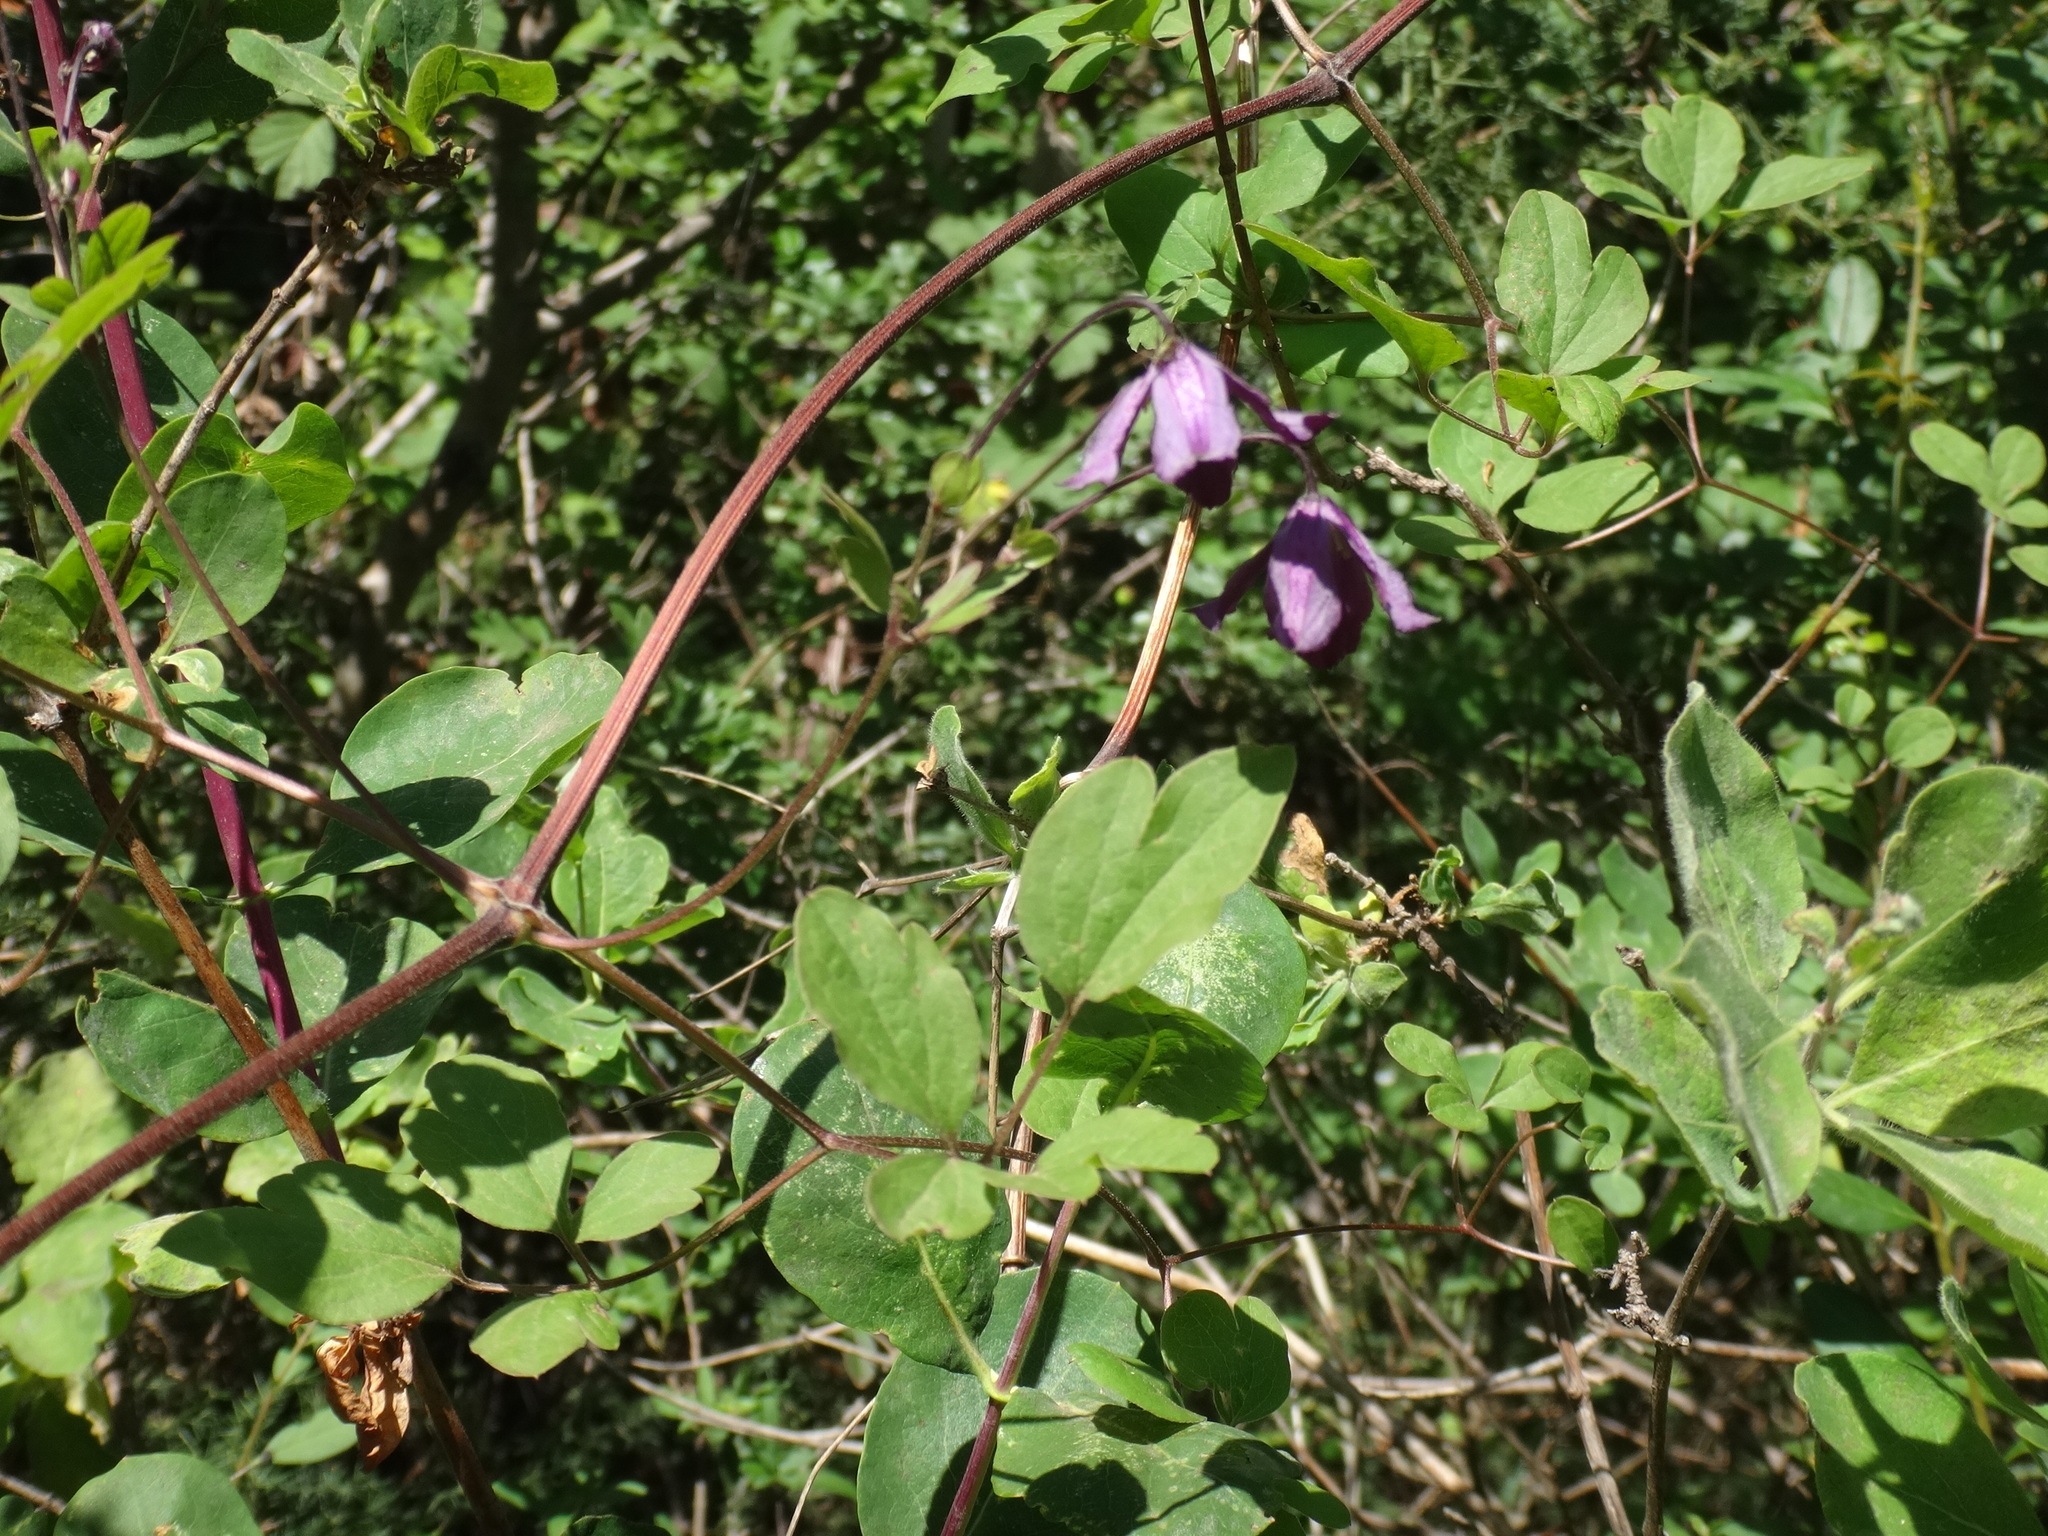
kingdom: Plantae
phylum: Tracheophyta
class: Magnoliopsida
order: Ranunculales
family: Ranunculaceae
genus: Clematis
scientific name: Clematis viticella
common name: Purple clematis
